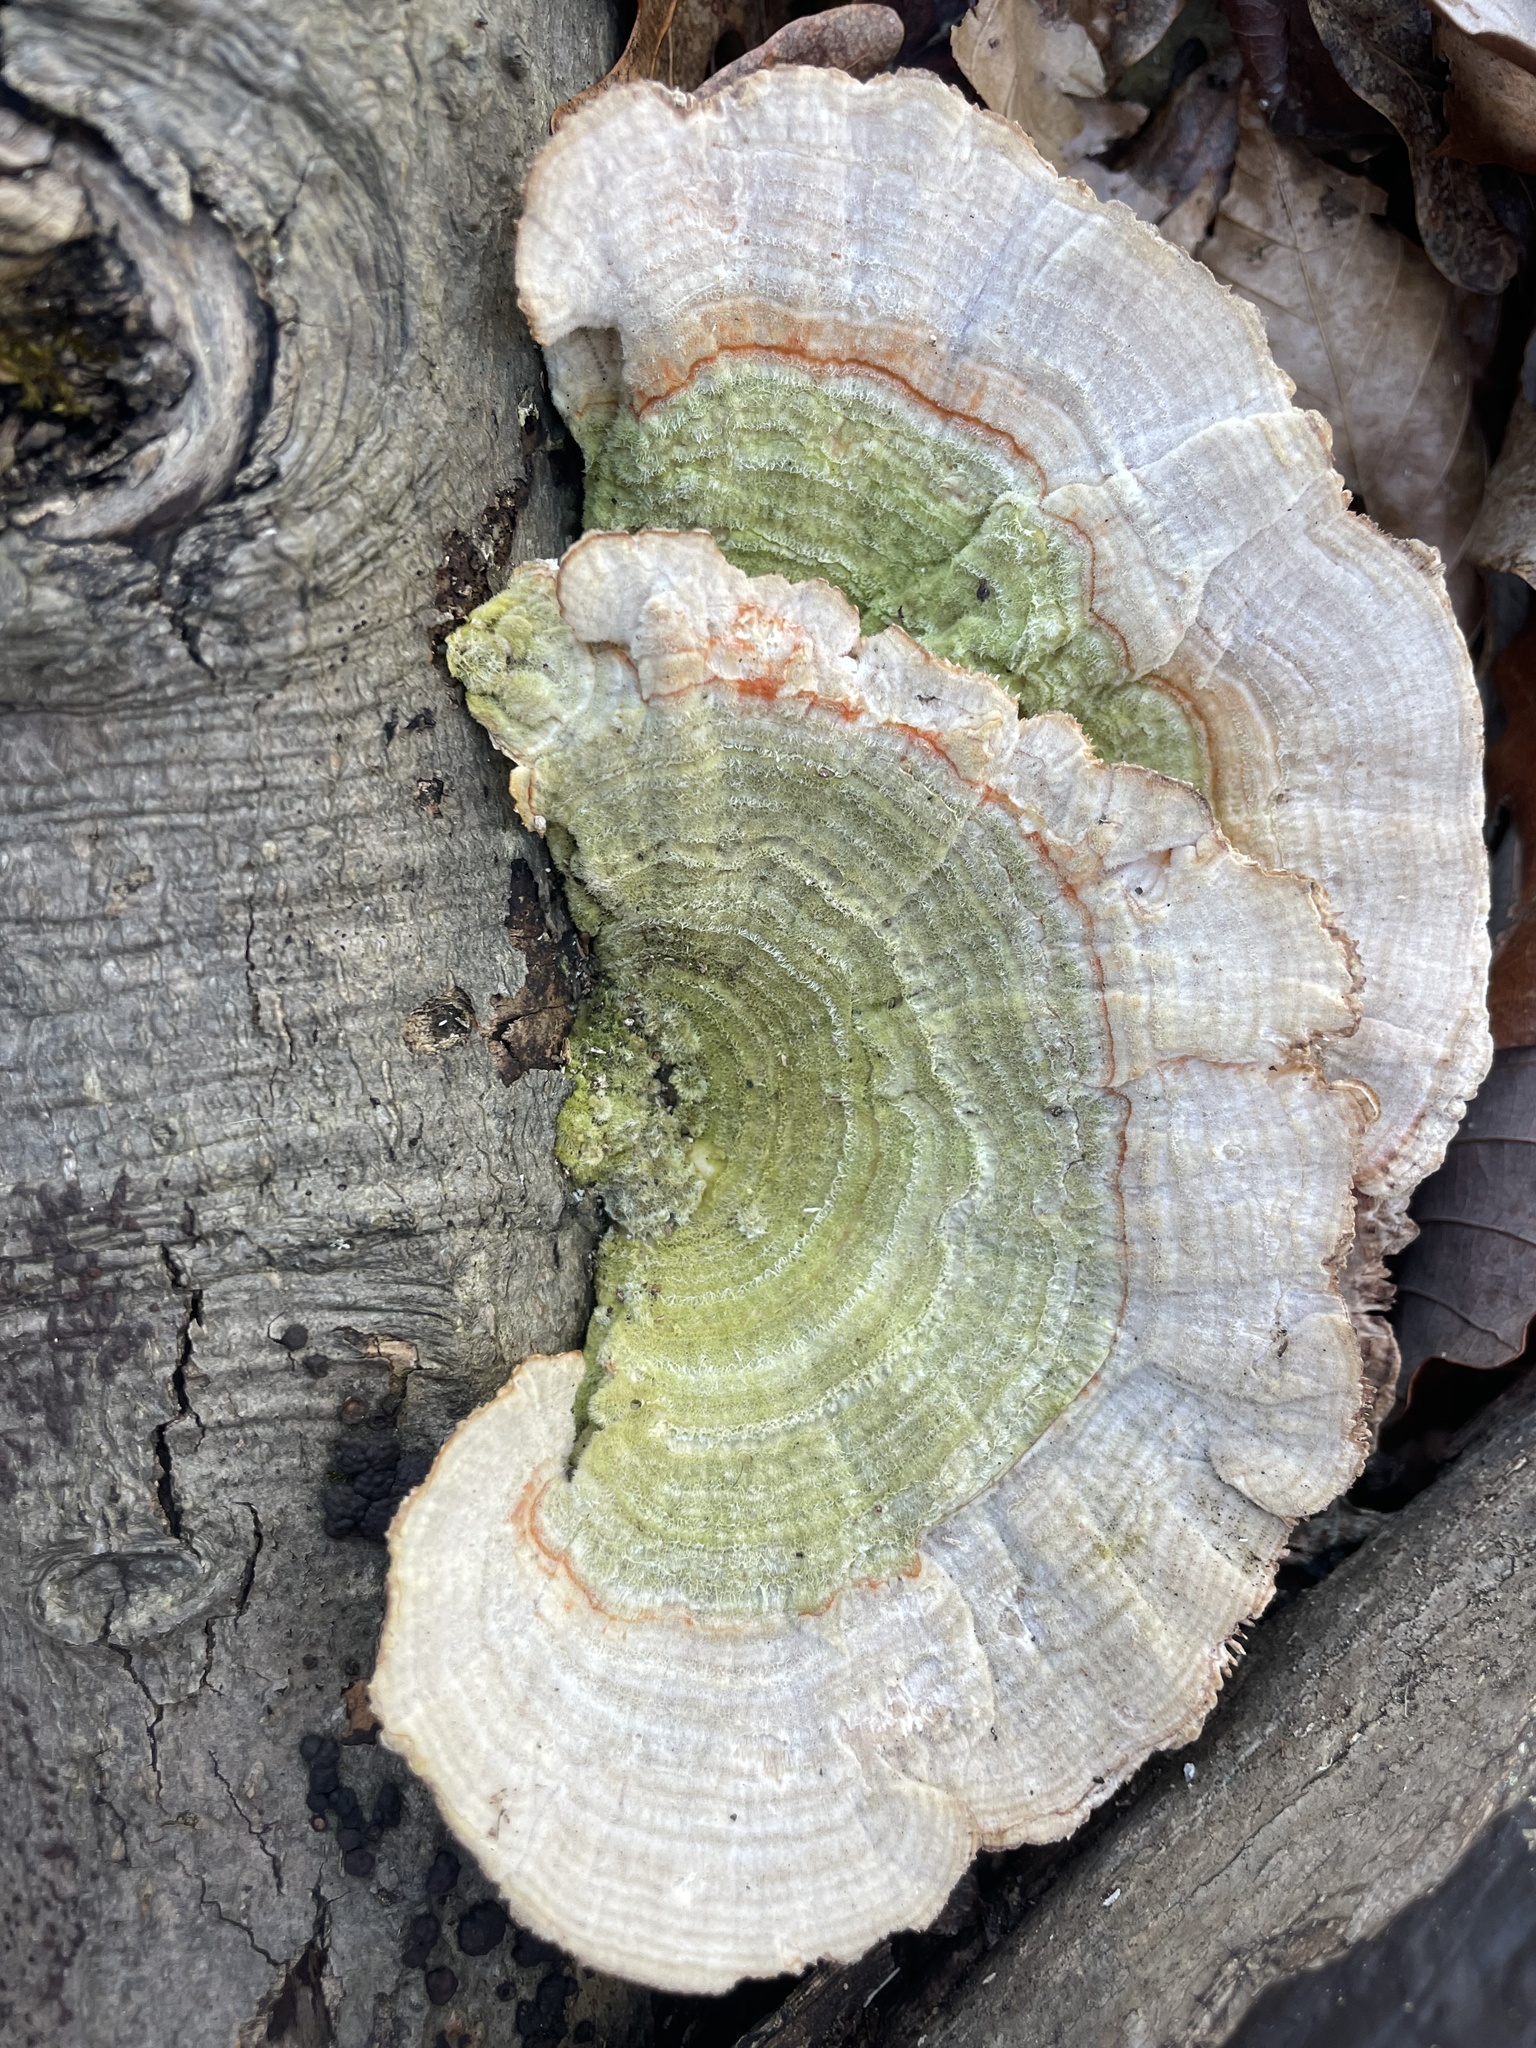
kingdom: Fungi
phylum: Basidiomycota
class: Agaricomycetes
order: Polyporales
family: Polyporaceae
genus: Lenzites
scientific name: Lenzites betulinus
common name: Birch mazegill
